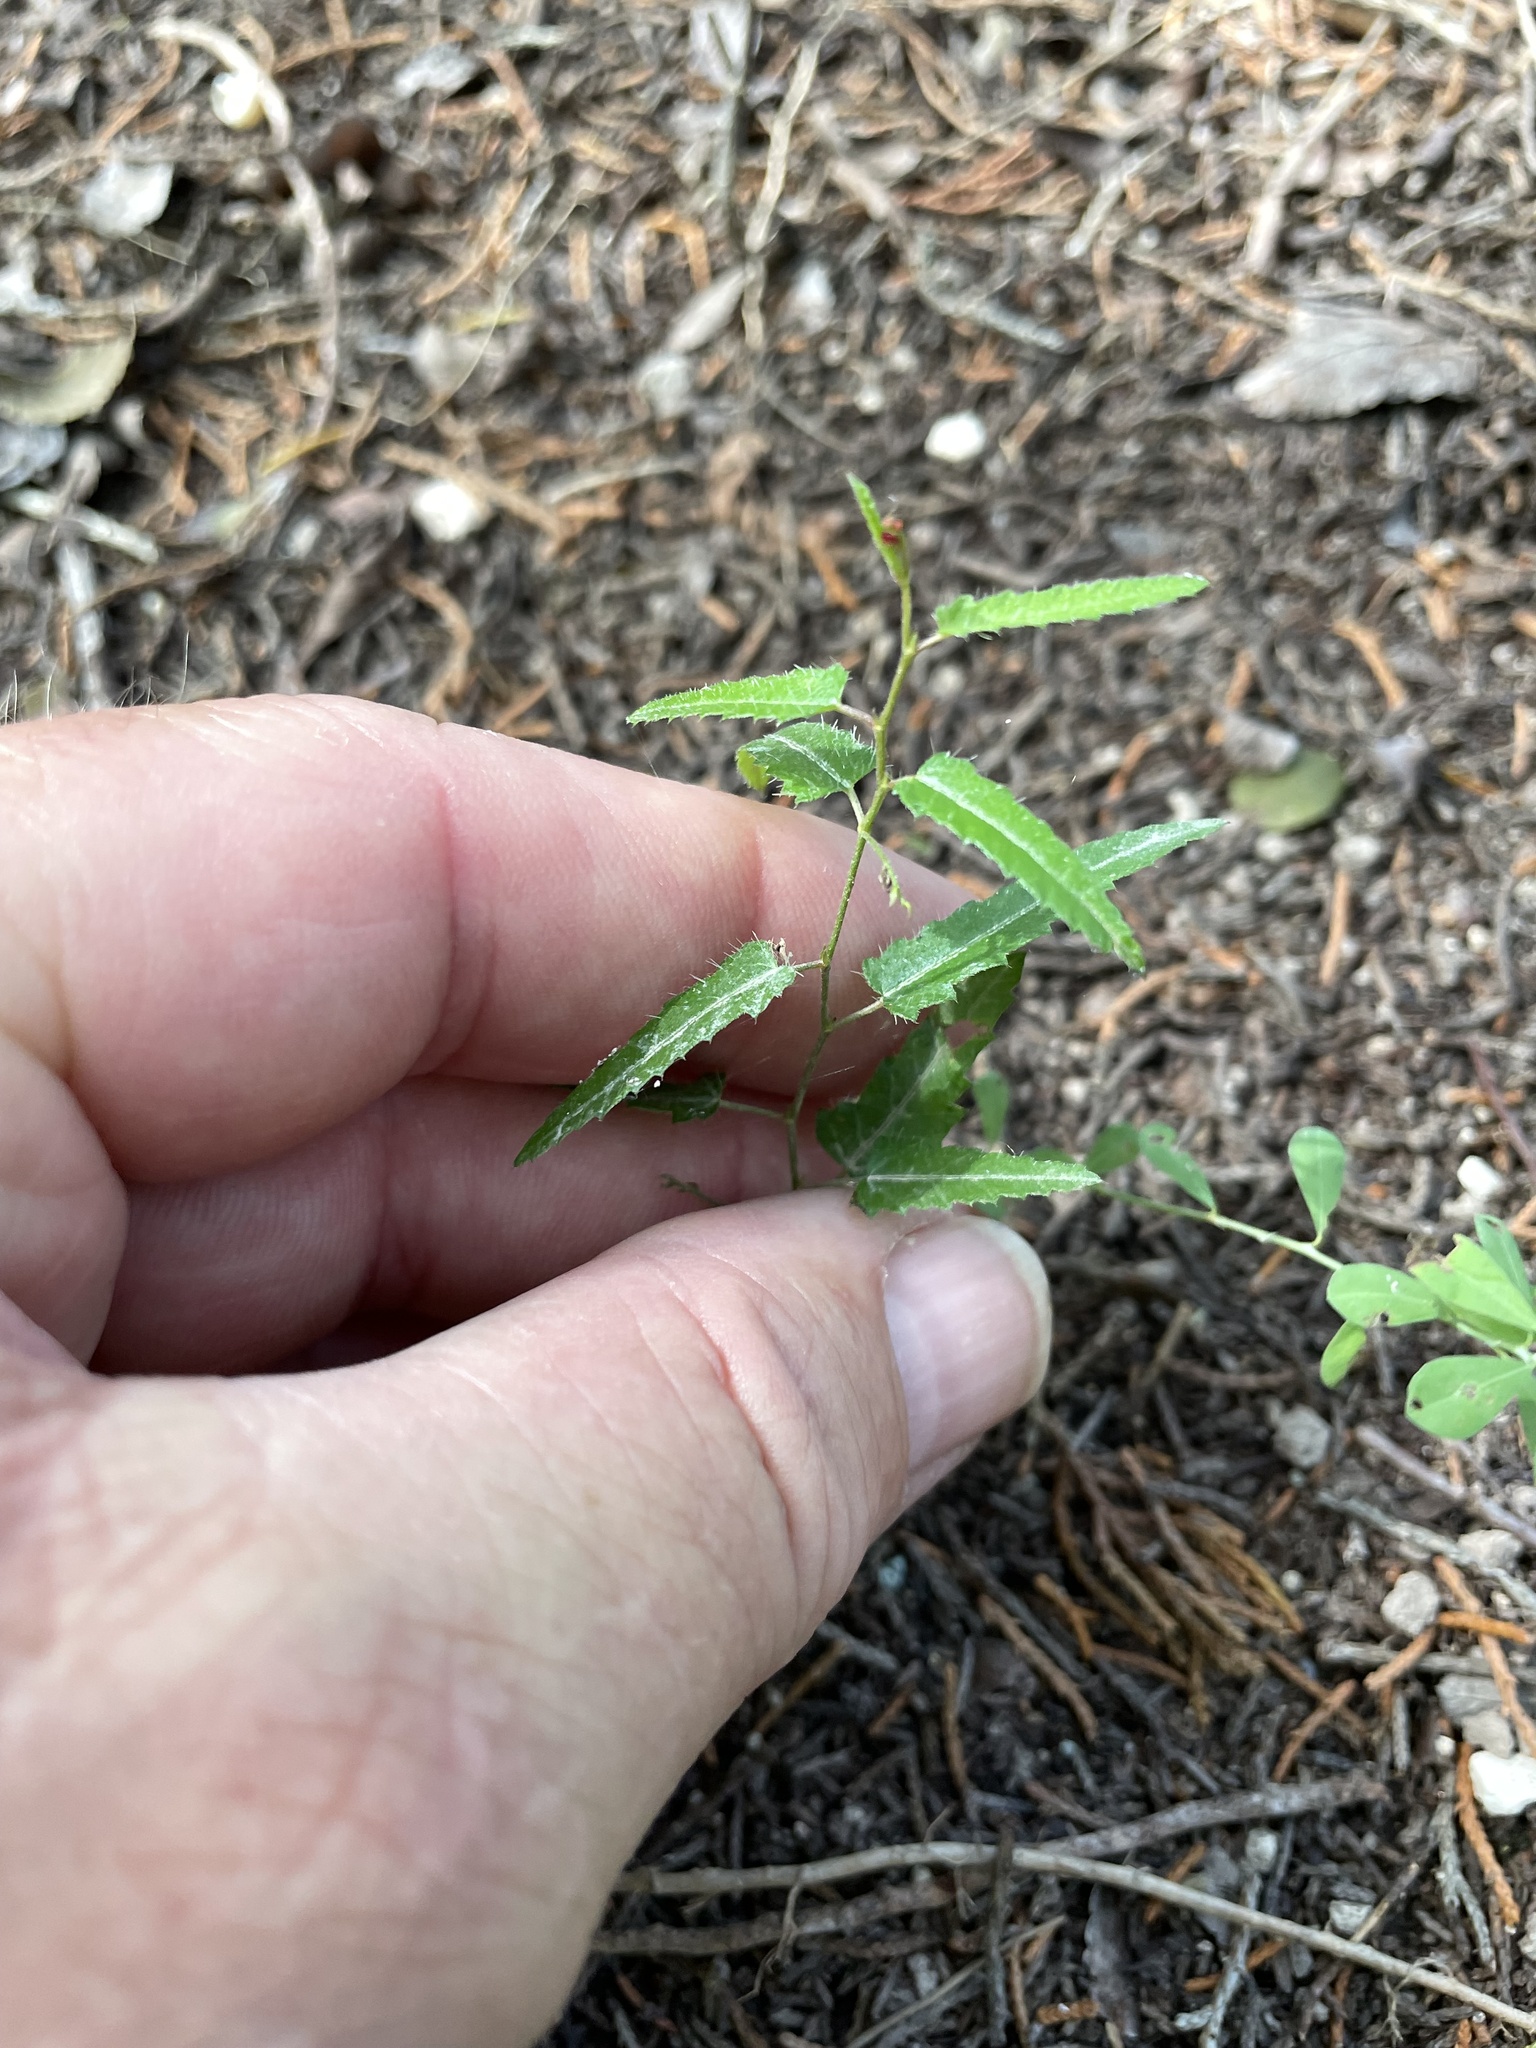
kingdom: Plantae
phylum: Tracheophyta
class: Magnoliopsida
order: Malpighiales
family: Euphorbiaceae
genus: Tragia
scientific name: Tragia ramosa
